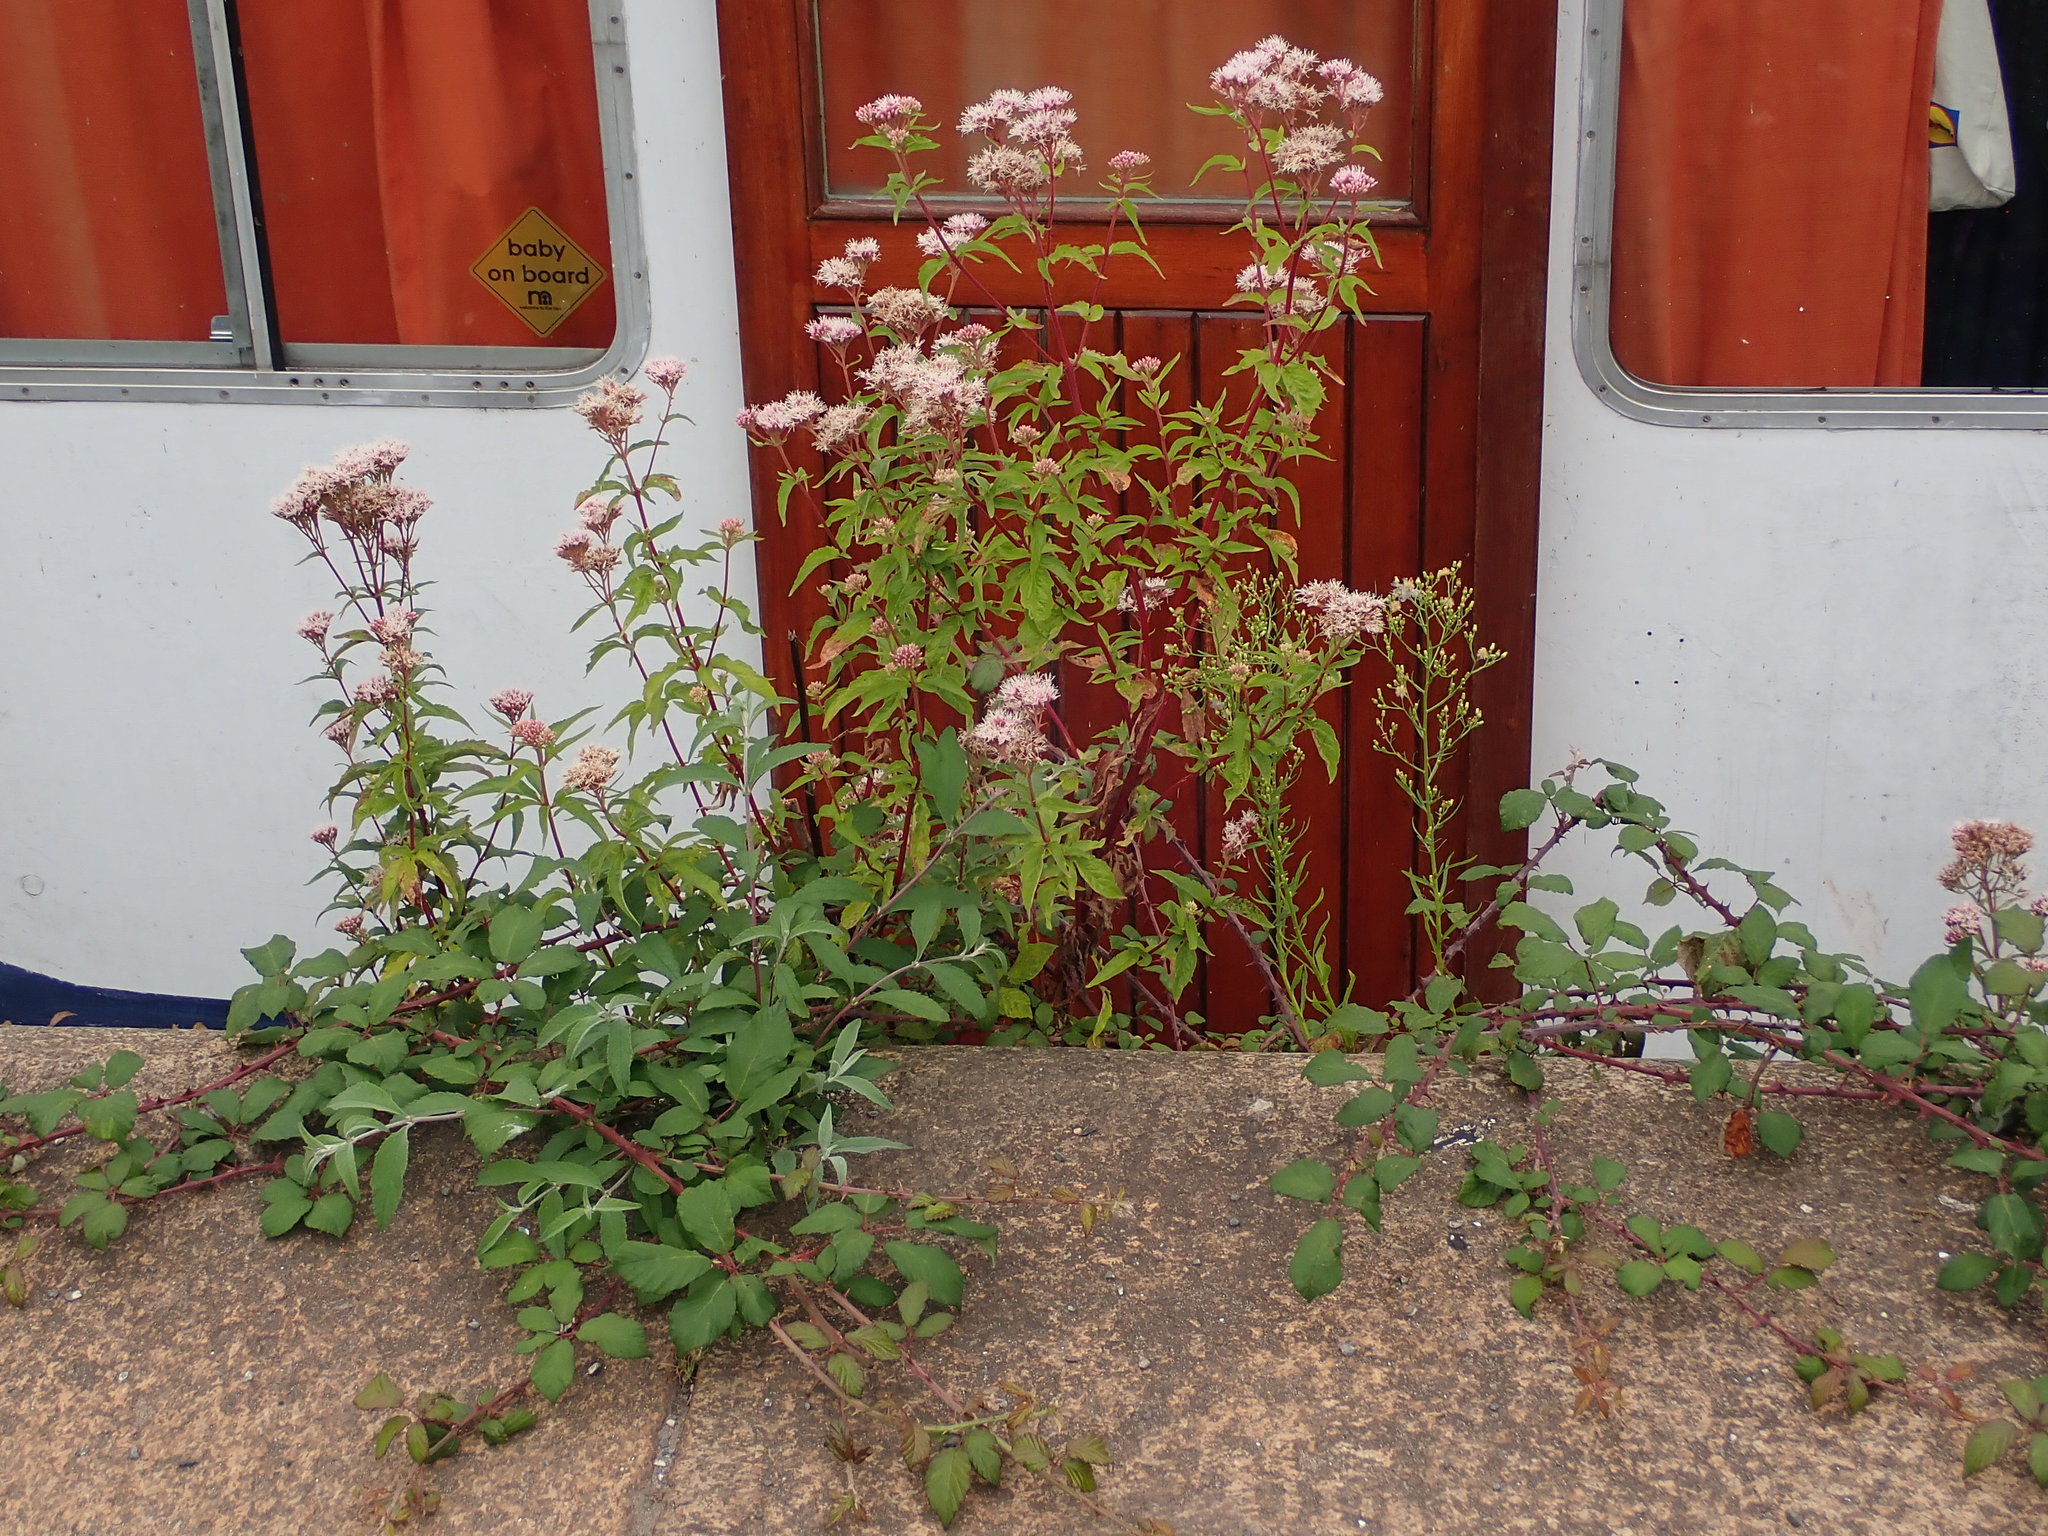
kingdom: Plantae
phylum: Tracheophyta
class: Magnoliopsida
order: Asterales
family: Asteraceae
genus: Eupatorium
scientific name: Eupatorium cannabinum
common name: Hemp-agrimony
